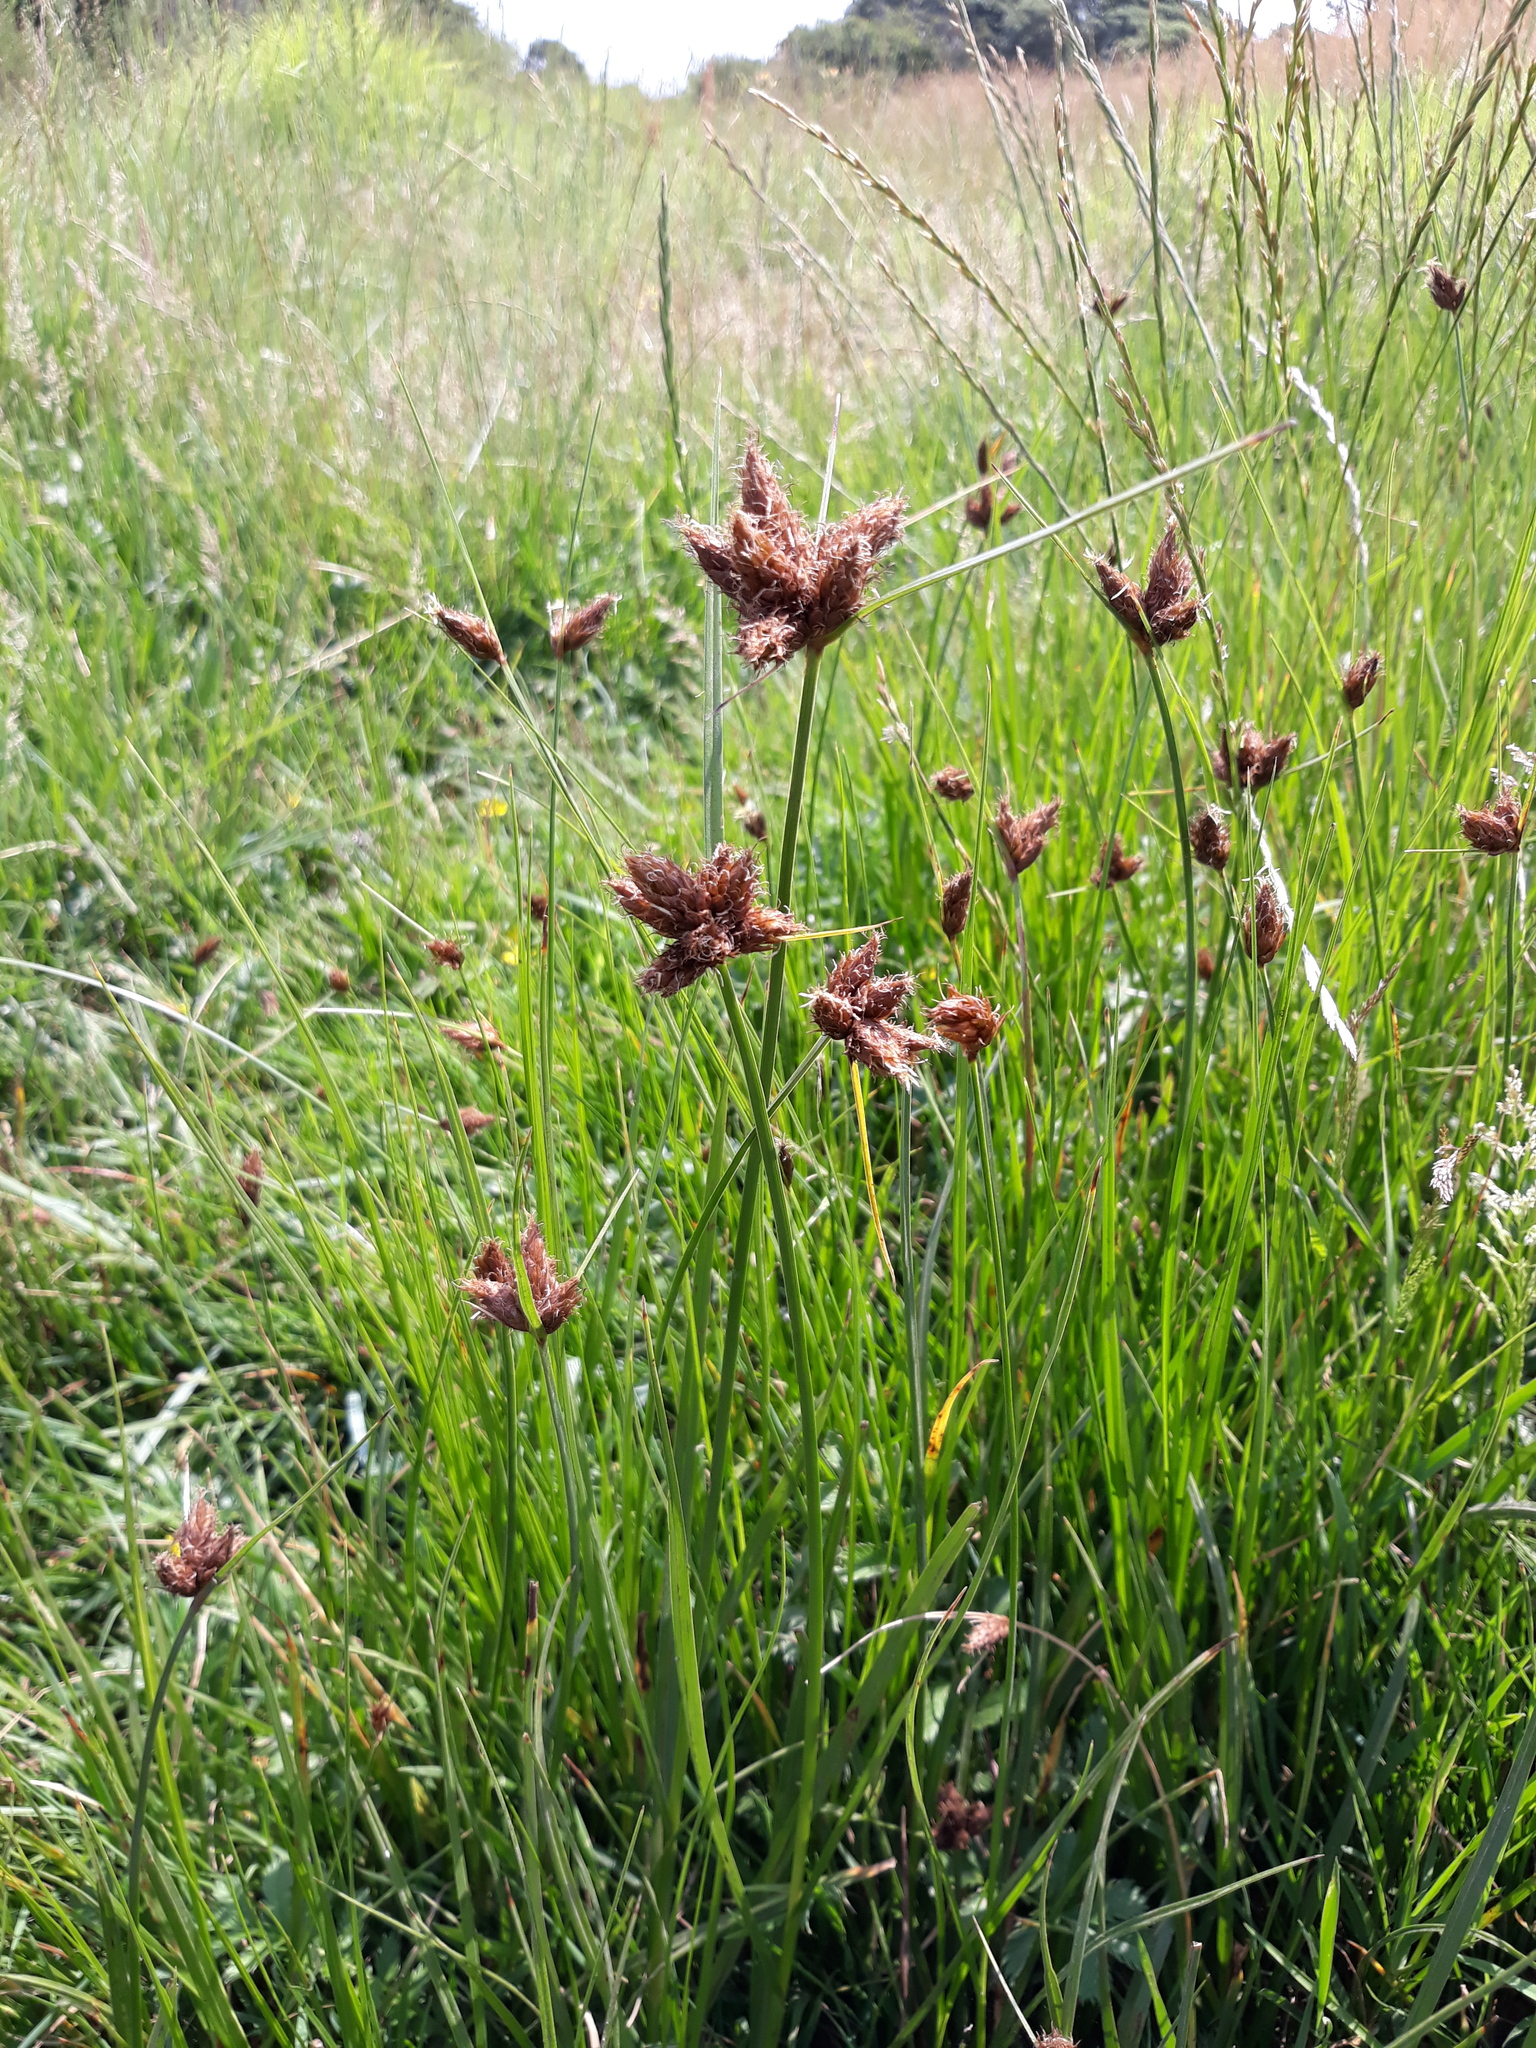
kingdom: Plantae
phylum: Tracheophyta
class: Liliopsida
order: Poales
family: Cyperaceae
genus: Bolboschoenus
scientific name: Bolboschoenus maritimus
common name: Sea club-rush
